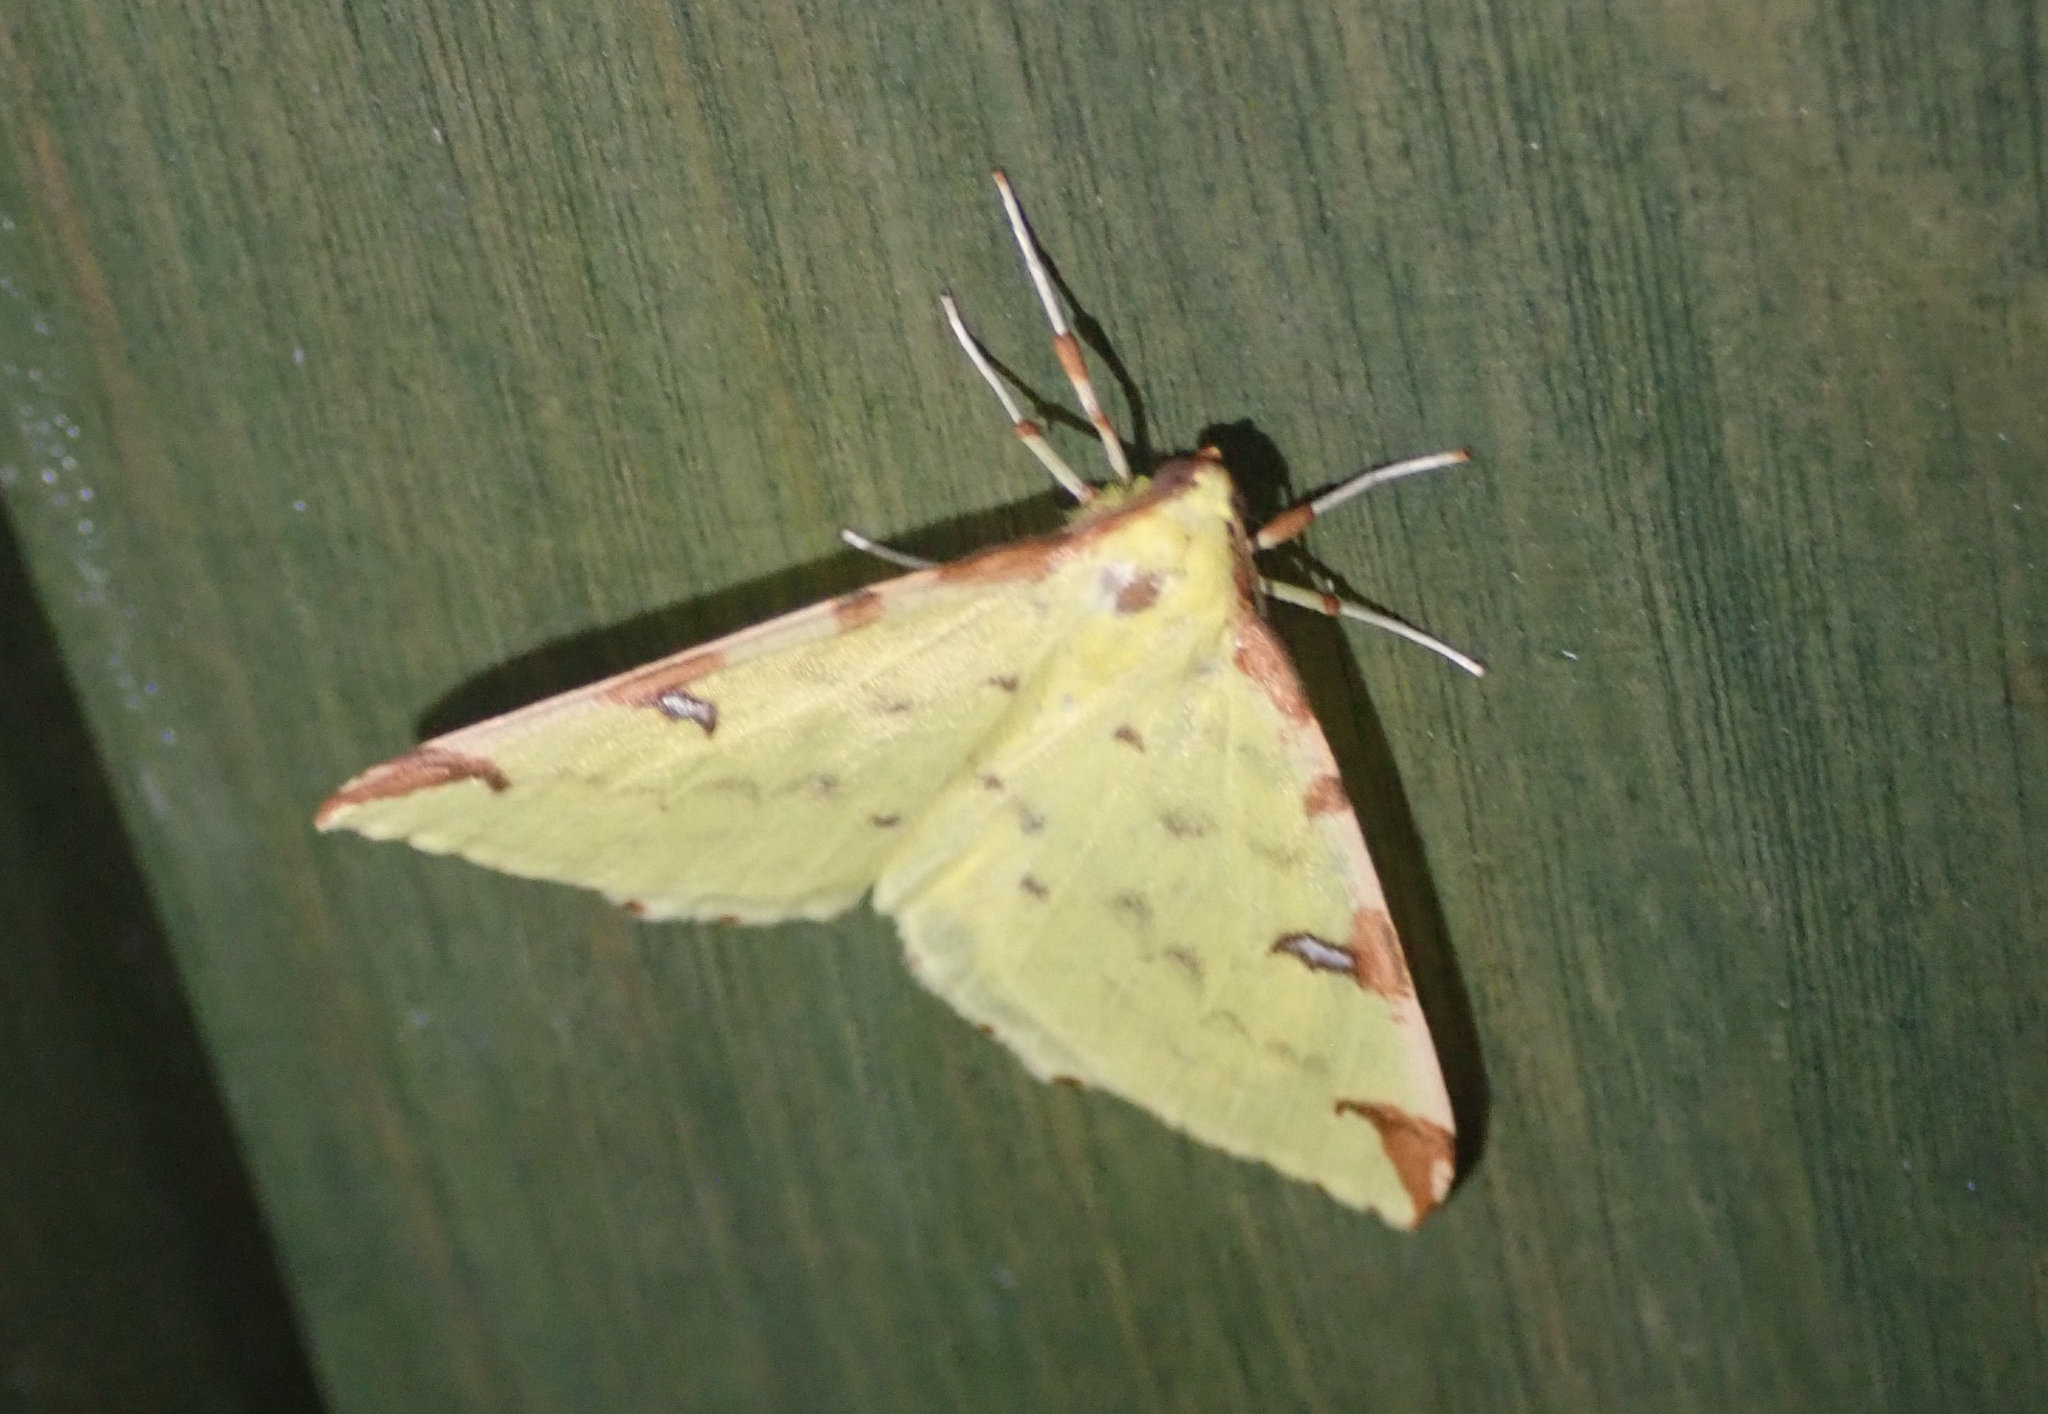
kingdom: Animalia
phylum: Arthropoda
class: Insecta
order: Lepidoptera
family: Geometridae
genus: Opisthograptis
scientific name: Opisthograptis luteolata
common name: Brimstone moth
